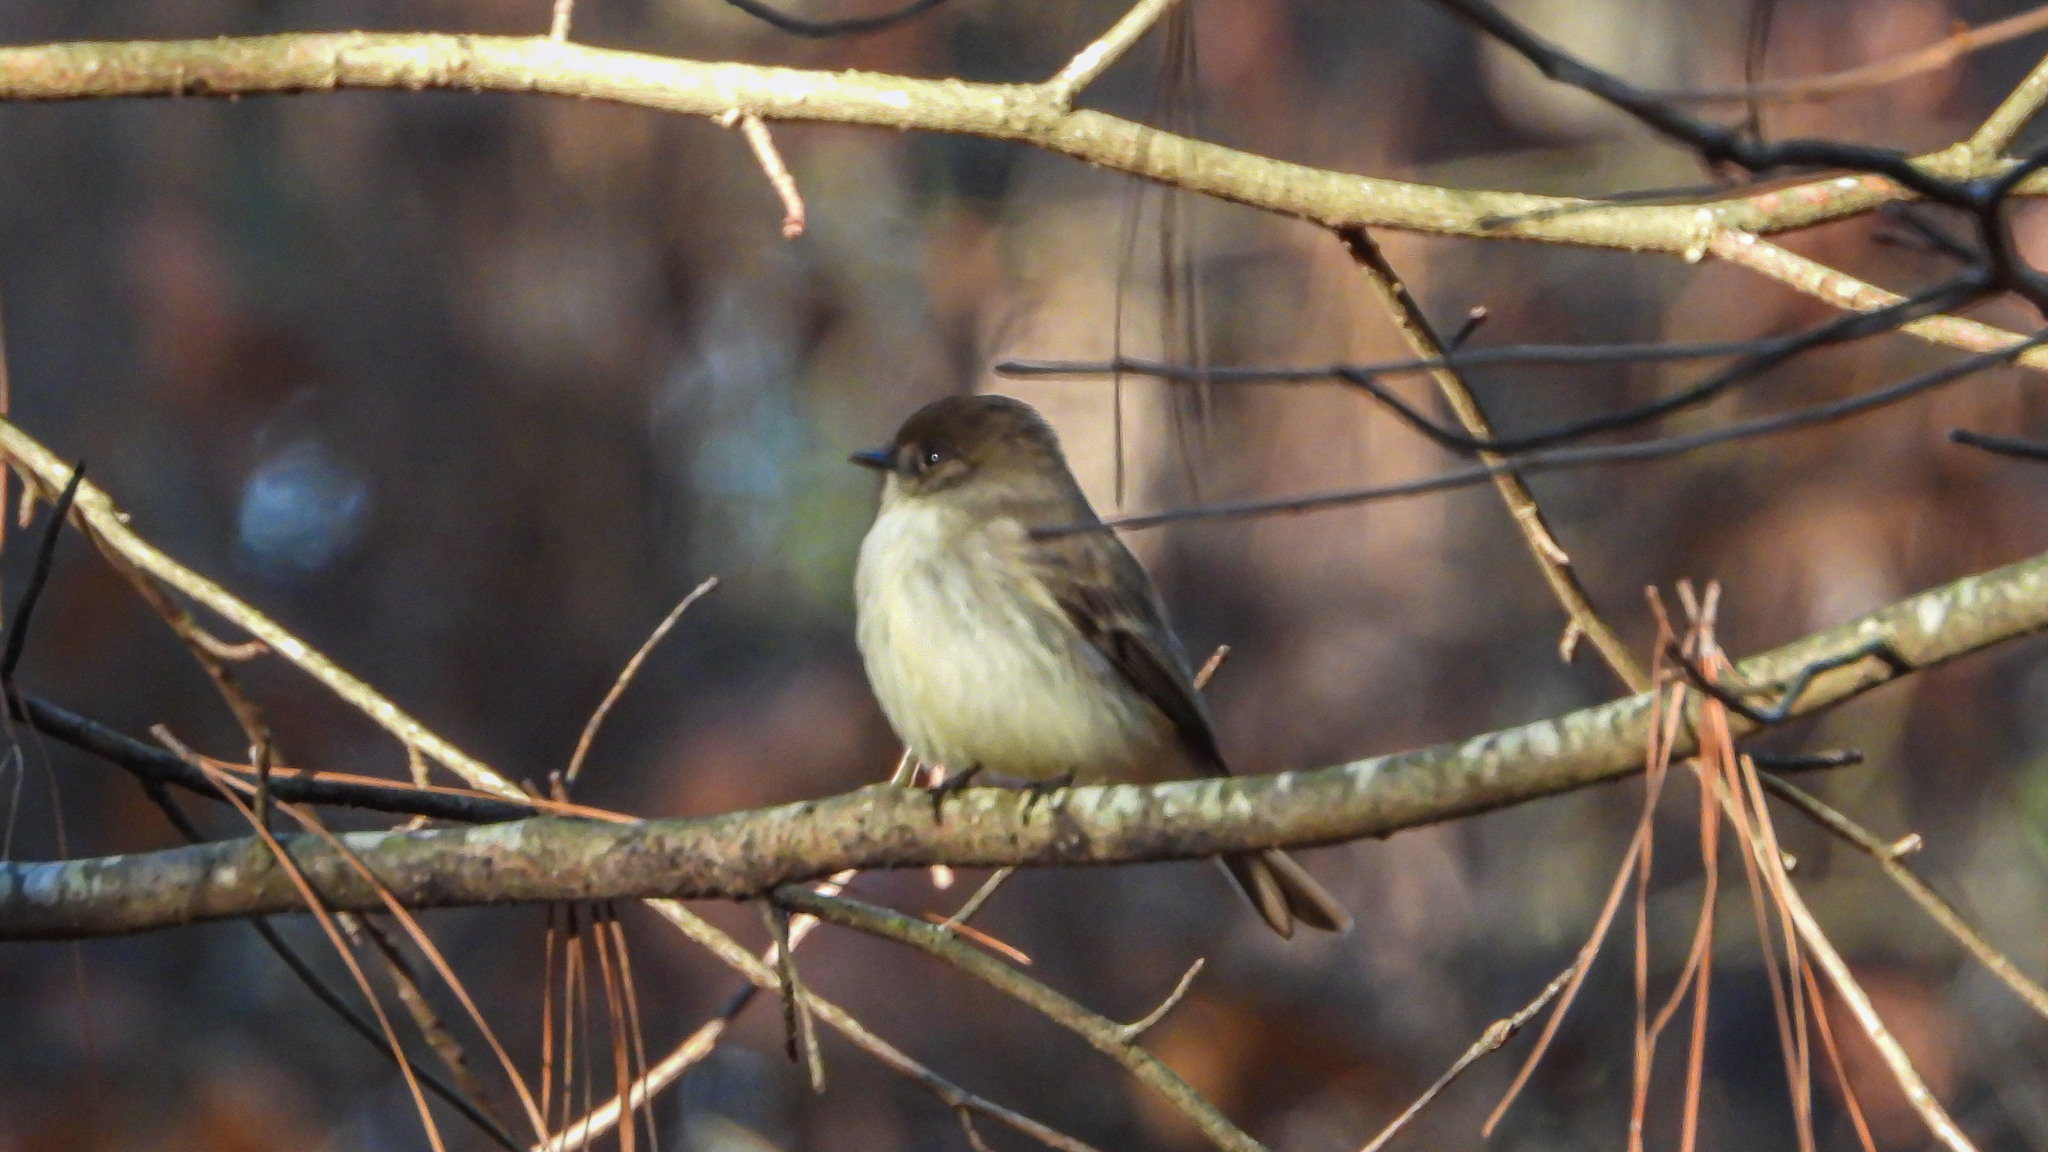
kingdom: Animalia
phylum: Chordata
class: Aves
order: Passeriformes
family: Tyrannidae
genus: Sayornis
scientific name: Sayornis phoebe
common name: Eastern phoebe
